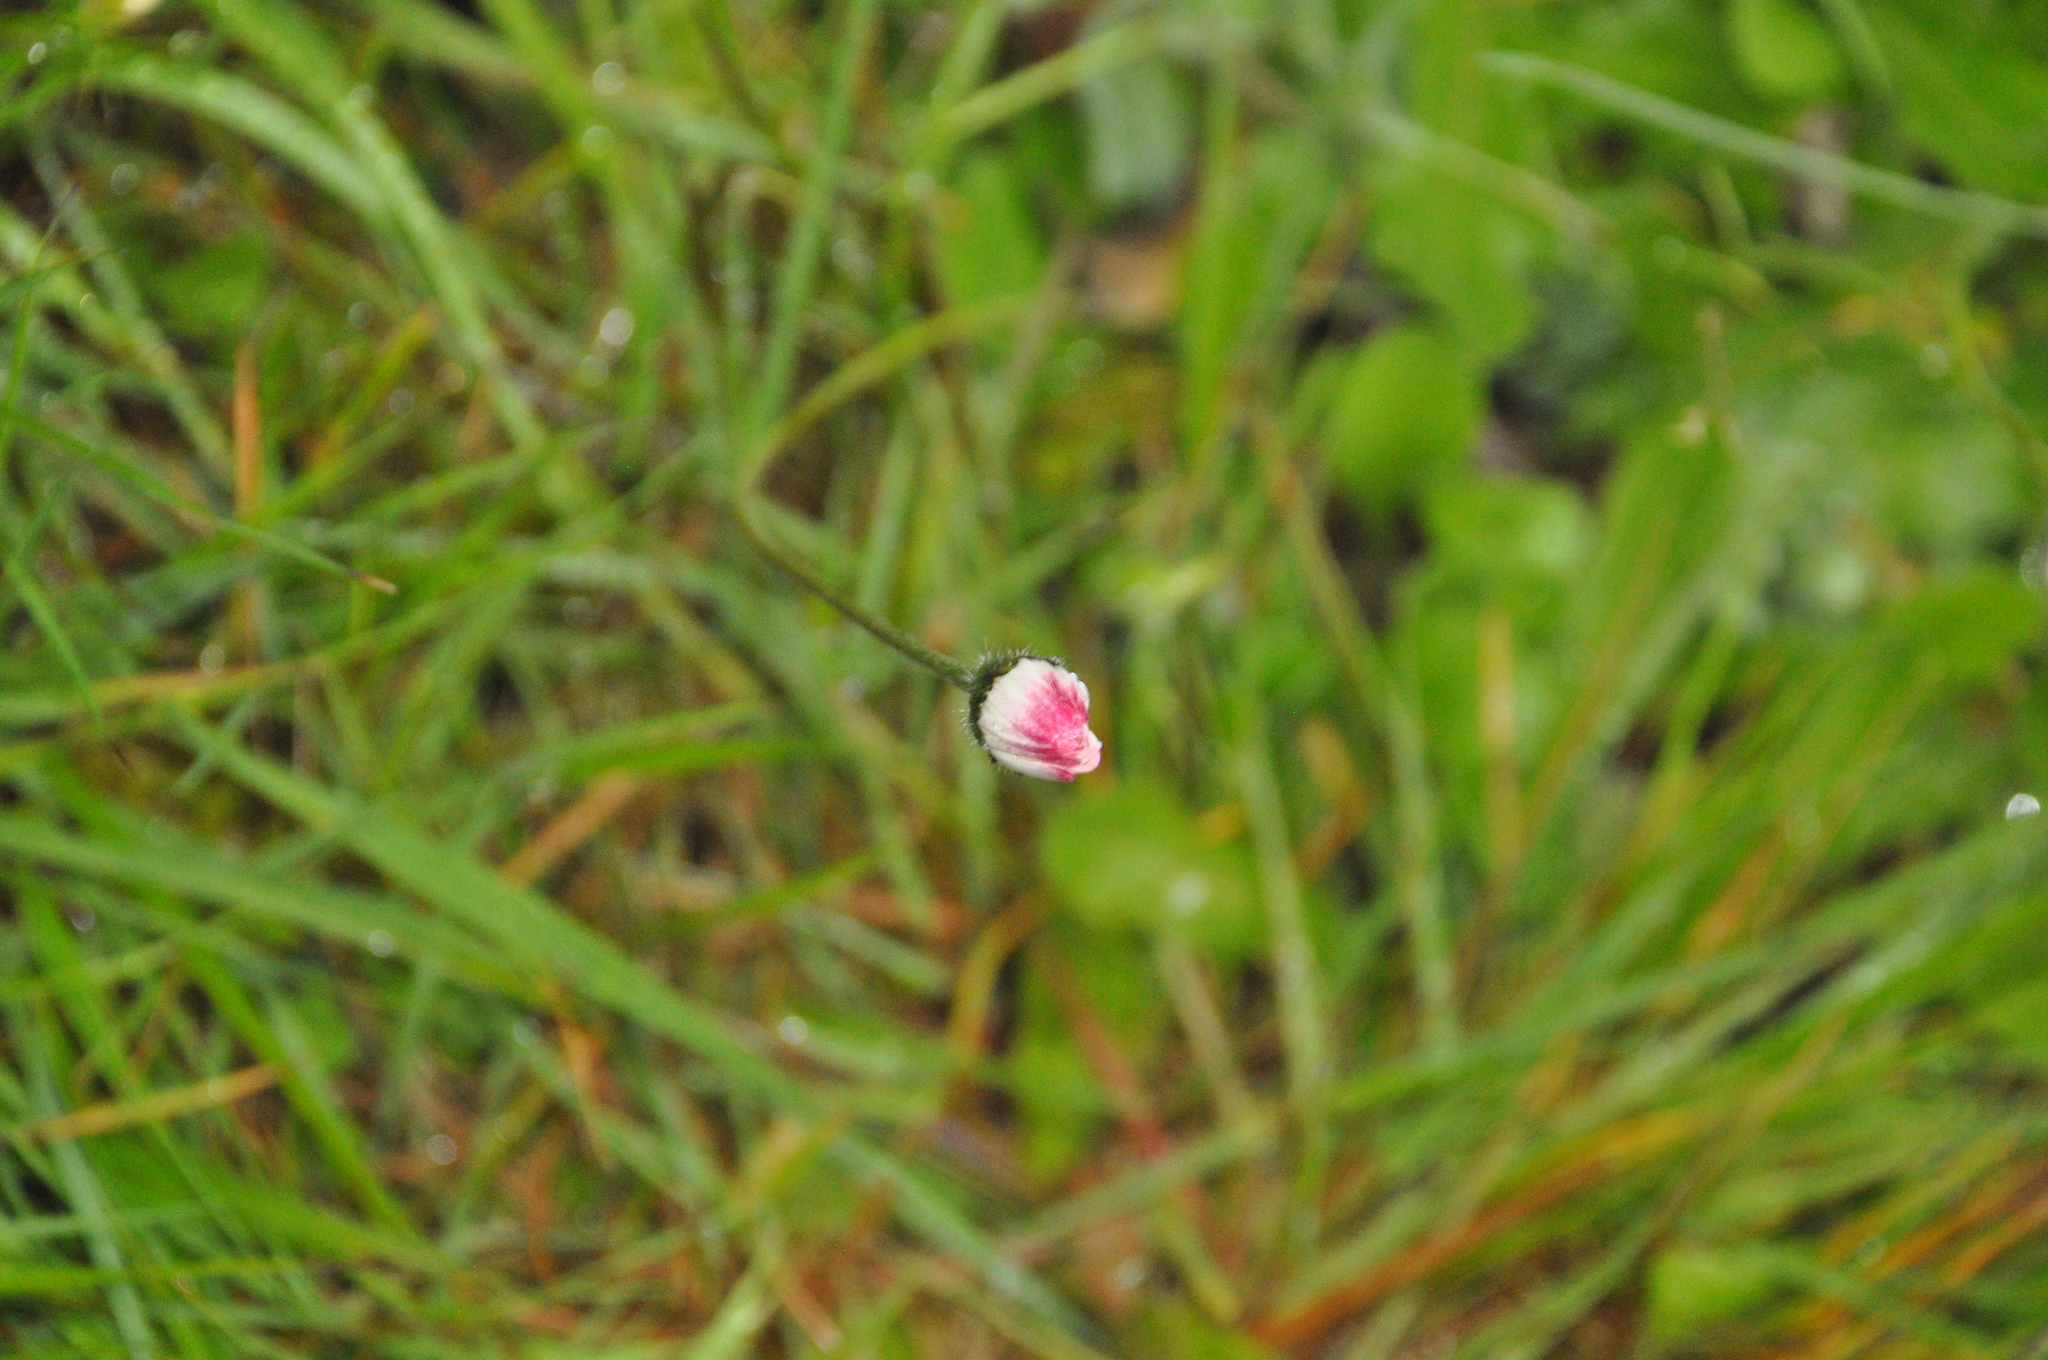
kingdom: Plantae
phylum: Tracheophyta
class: Magnoliopsida
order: Asterales
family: Asteraceae
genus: Bellis
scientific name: Bellis perennis
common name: Lawndaisy
